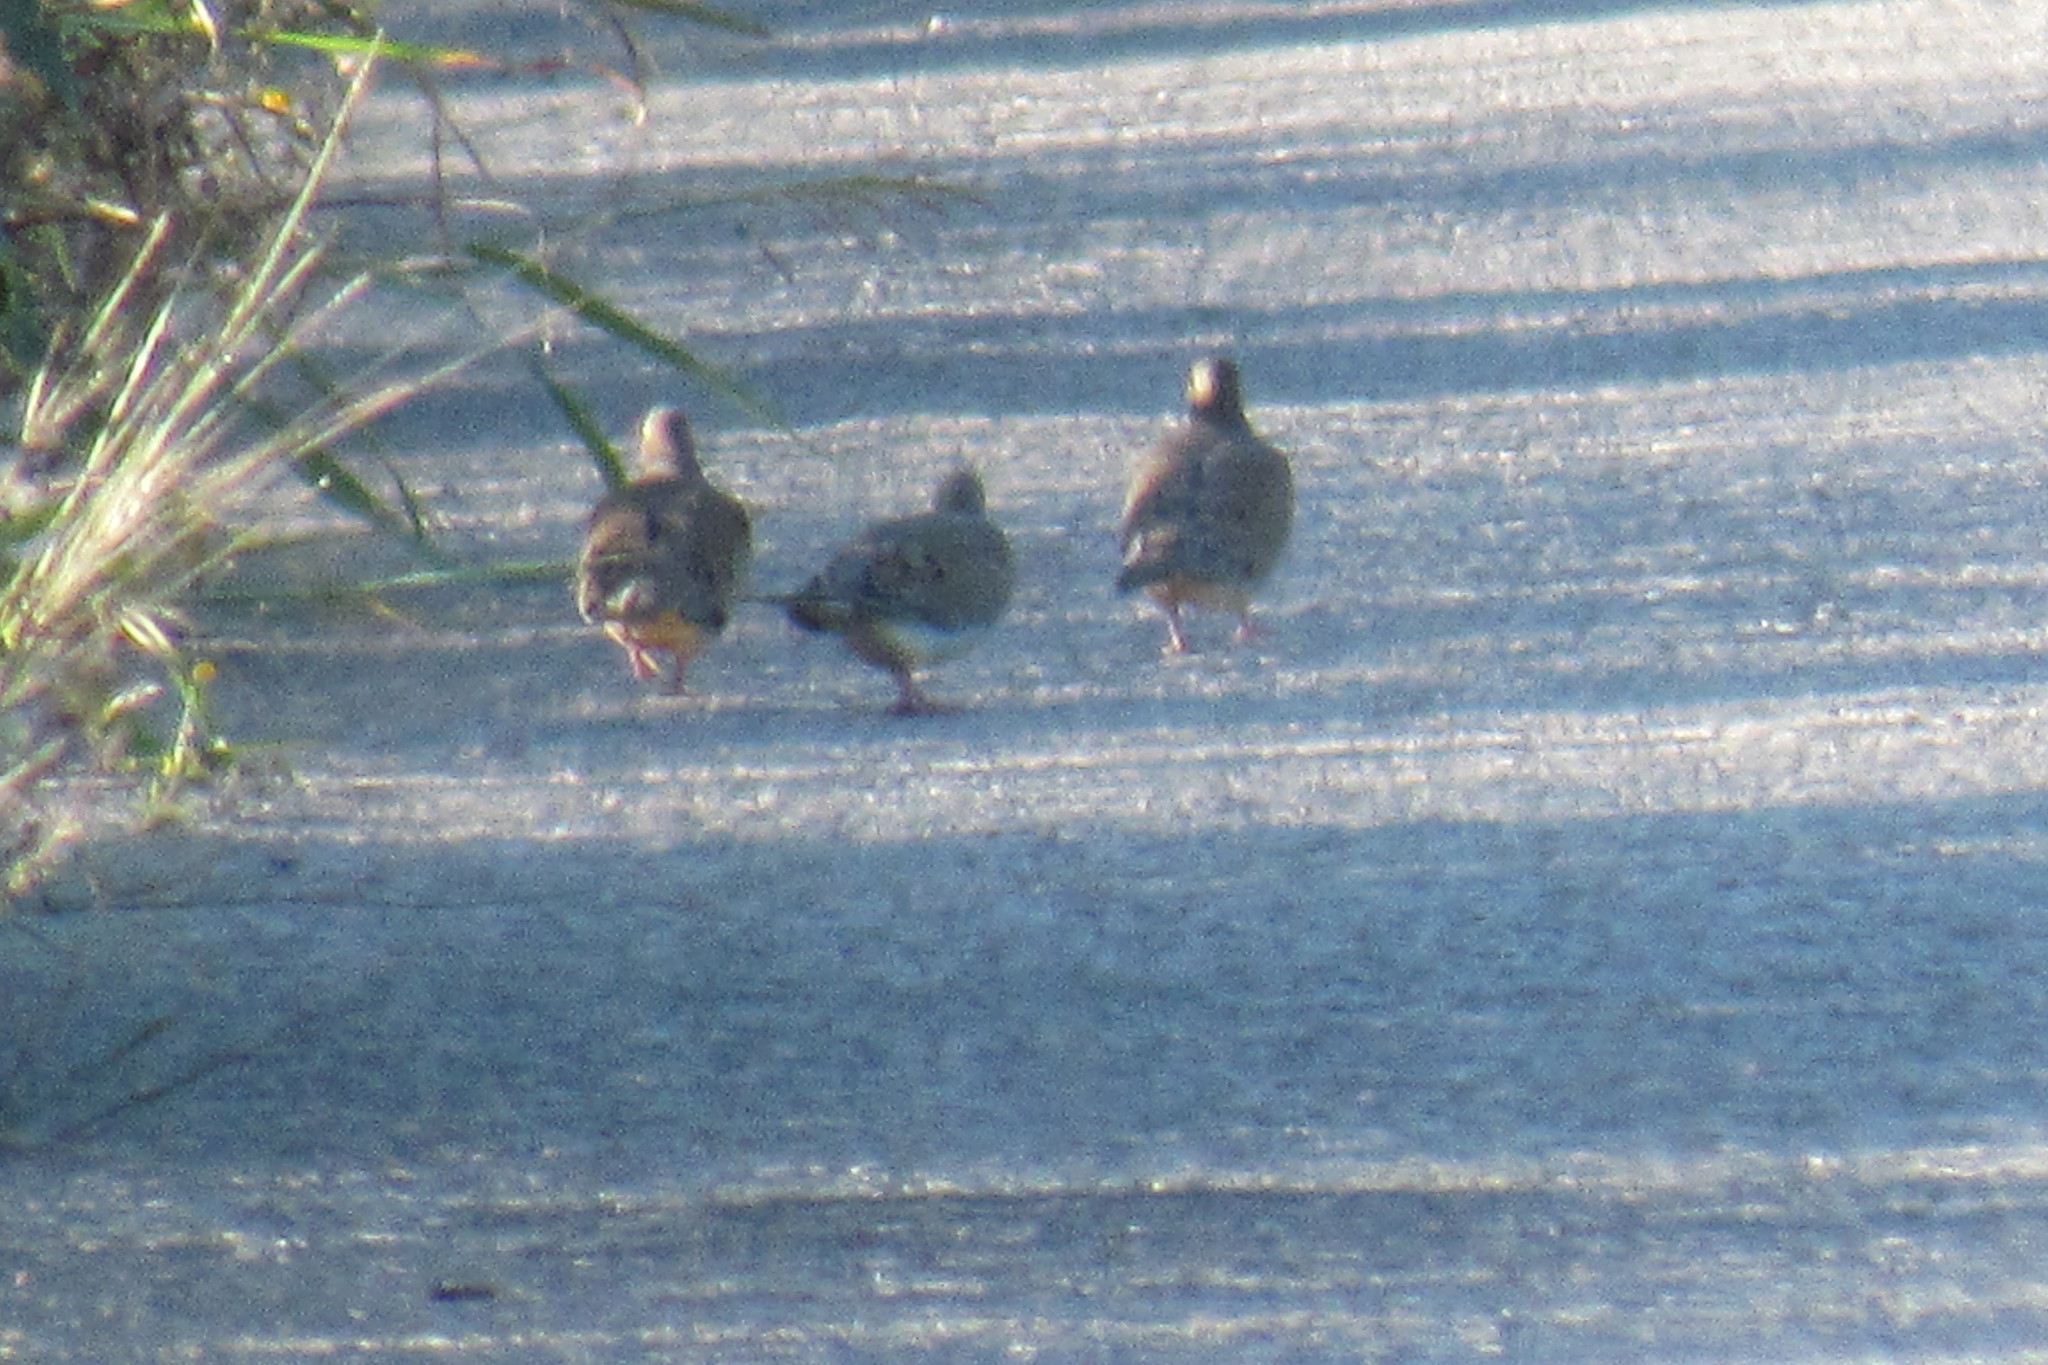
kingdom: Animalia
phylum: Chordata
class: Aves
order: Columbiformes
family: Columbidae
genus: Zenaida
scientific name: Zenaida macroura
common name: Mourning dove
